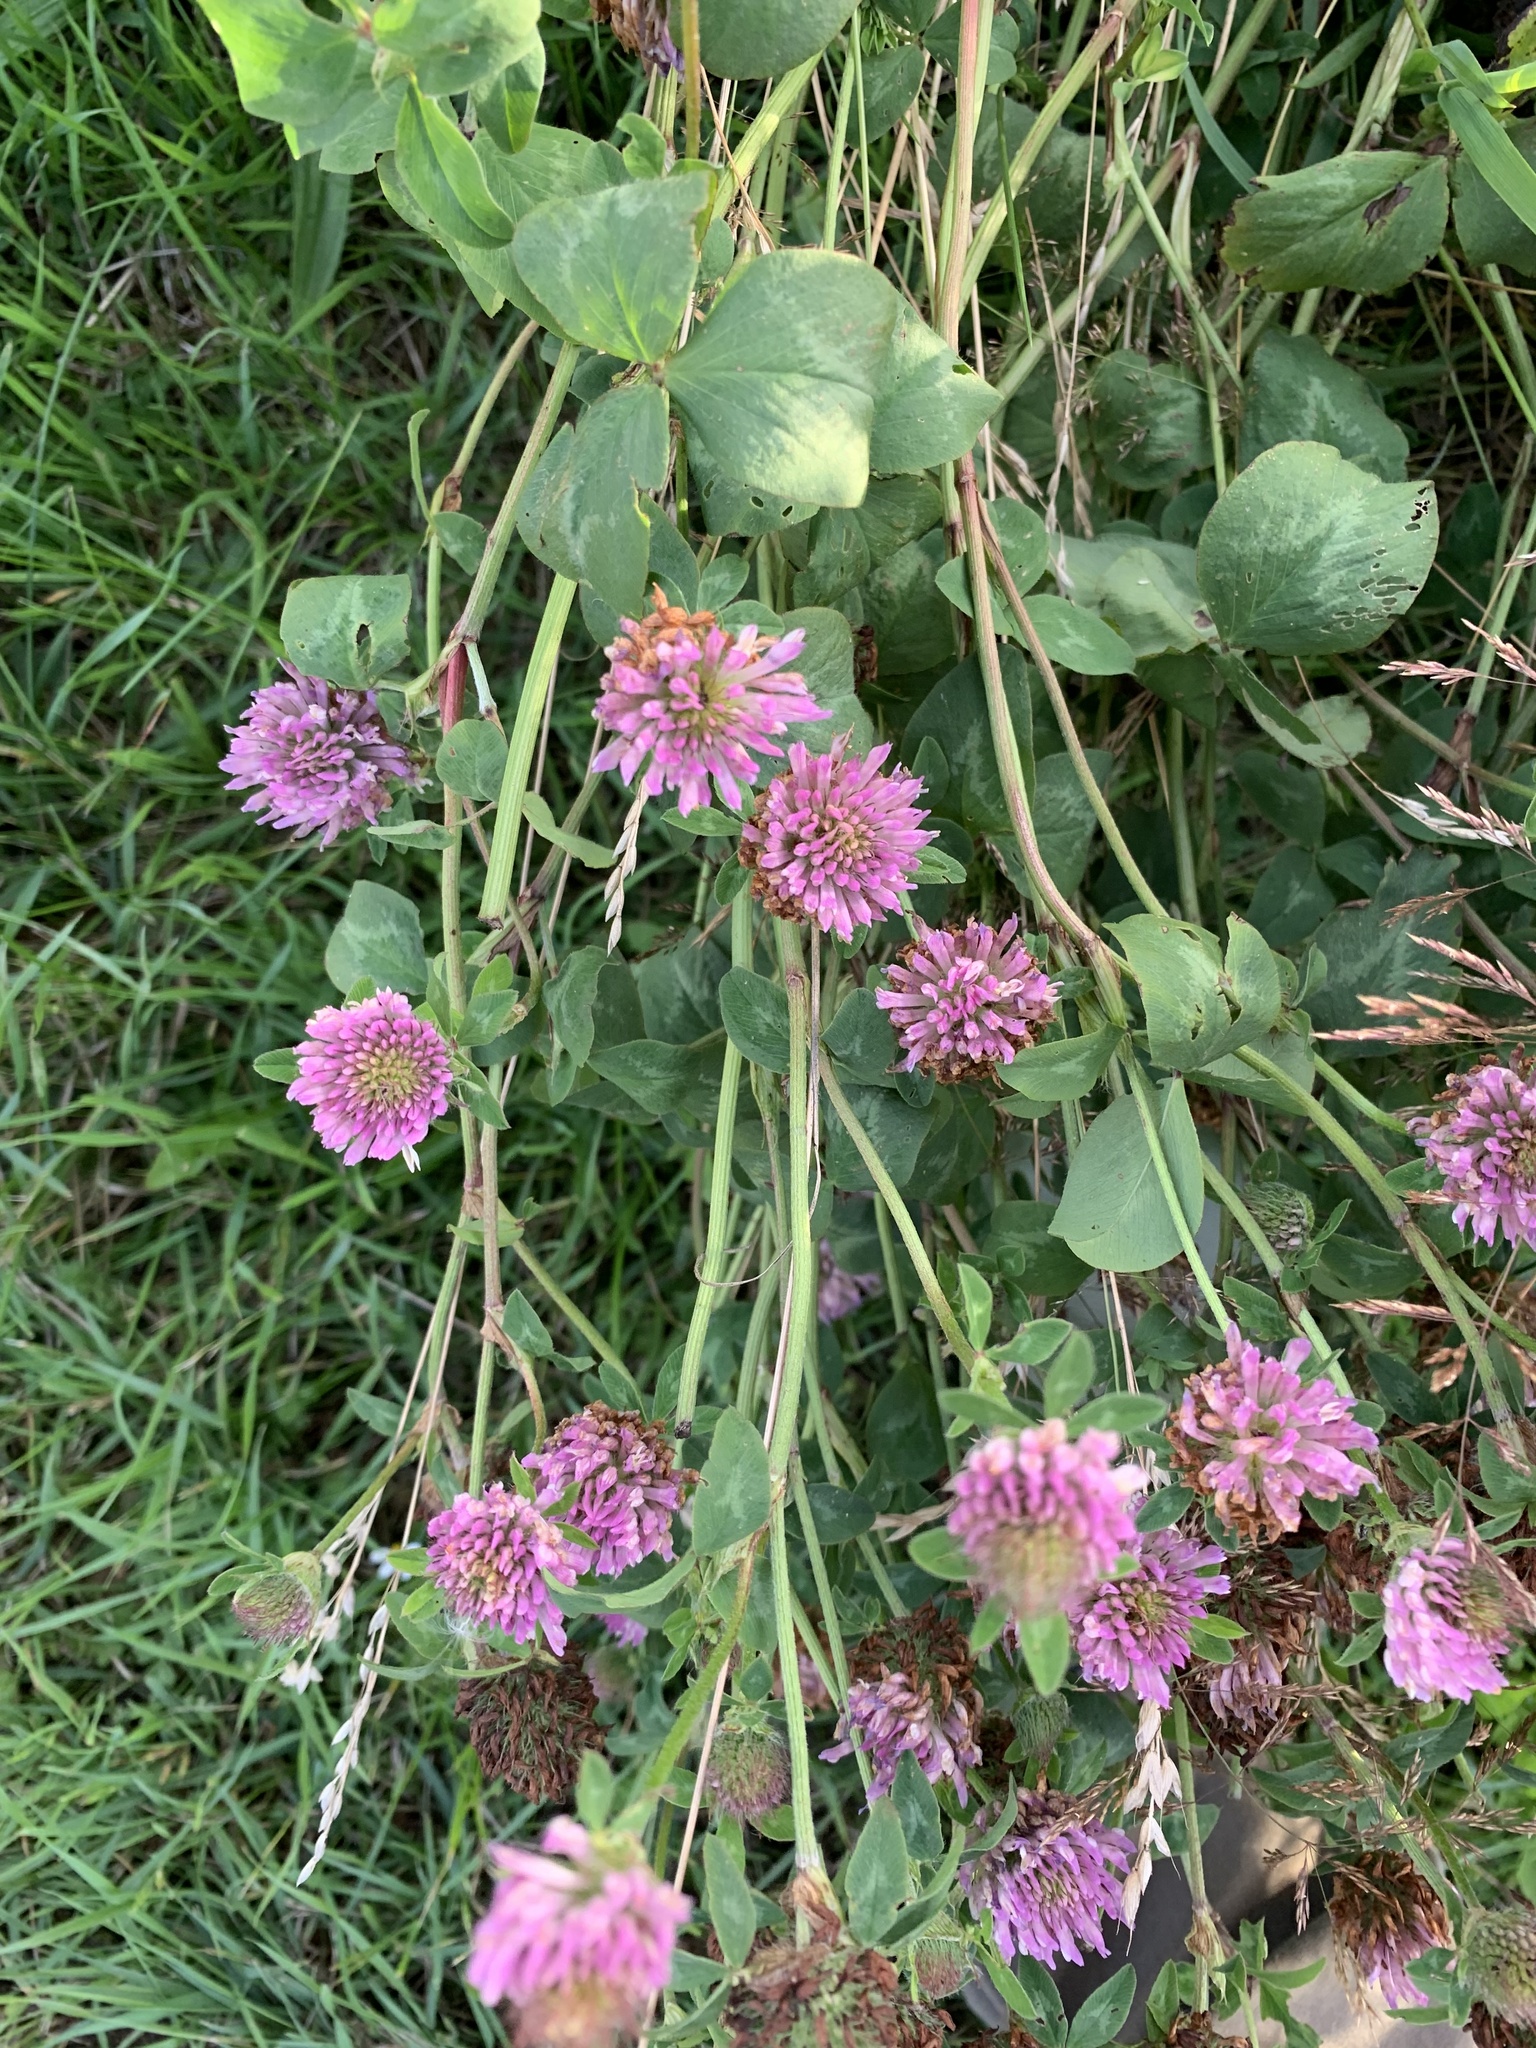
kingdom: Plantae
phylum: Tracheophyta
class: Magnoliopsida
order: Fabales
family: Fabaceae
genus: Trifolium
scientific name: Trifolium pratense
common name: Red clover
